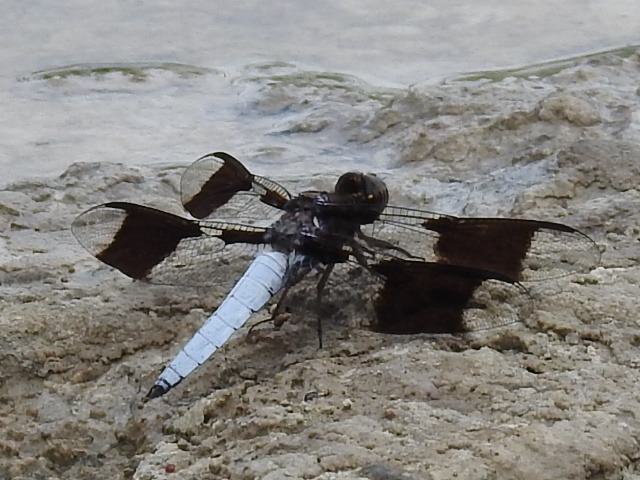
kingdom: Animalia
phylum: Arthropoda
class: Insecta
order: Odonata
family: Libellulidae
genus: Plathemis
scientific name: Plathemis lydia
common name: Common whitetail
